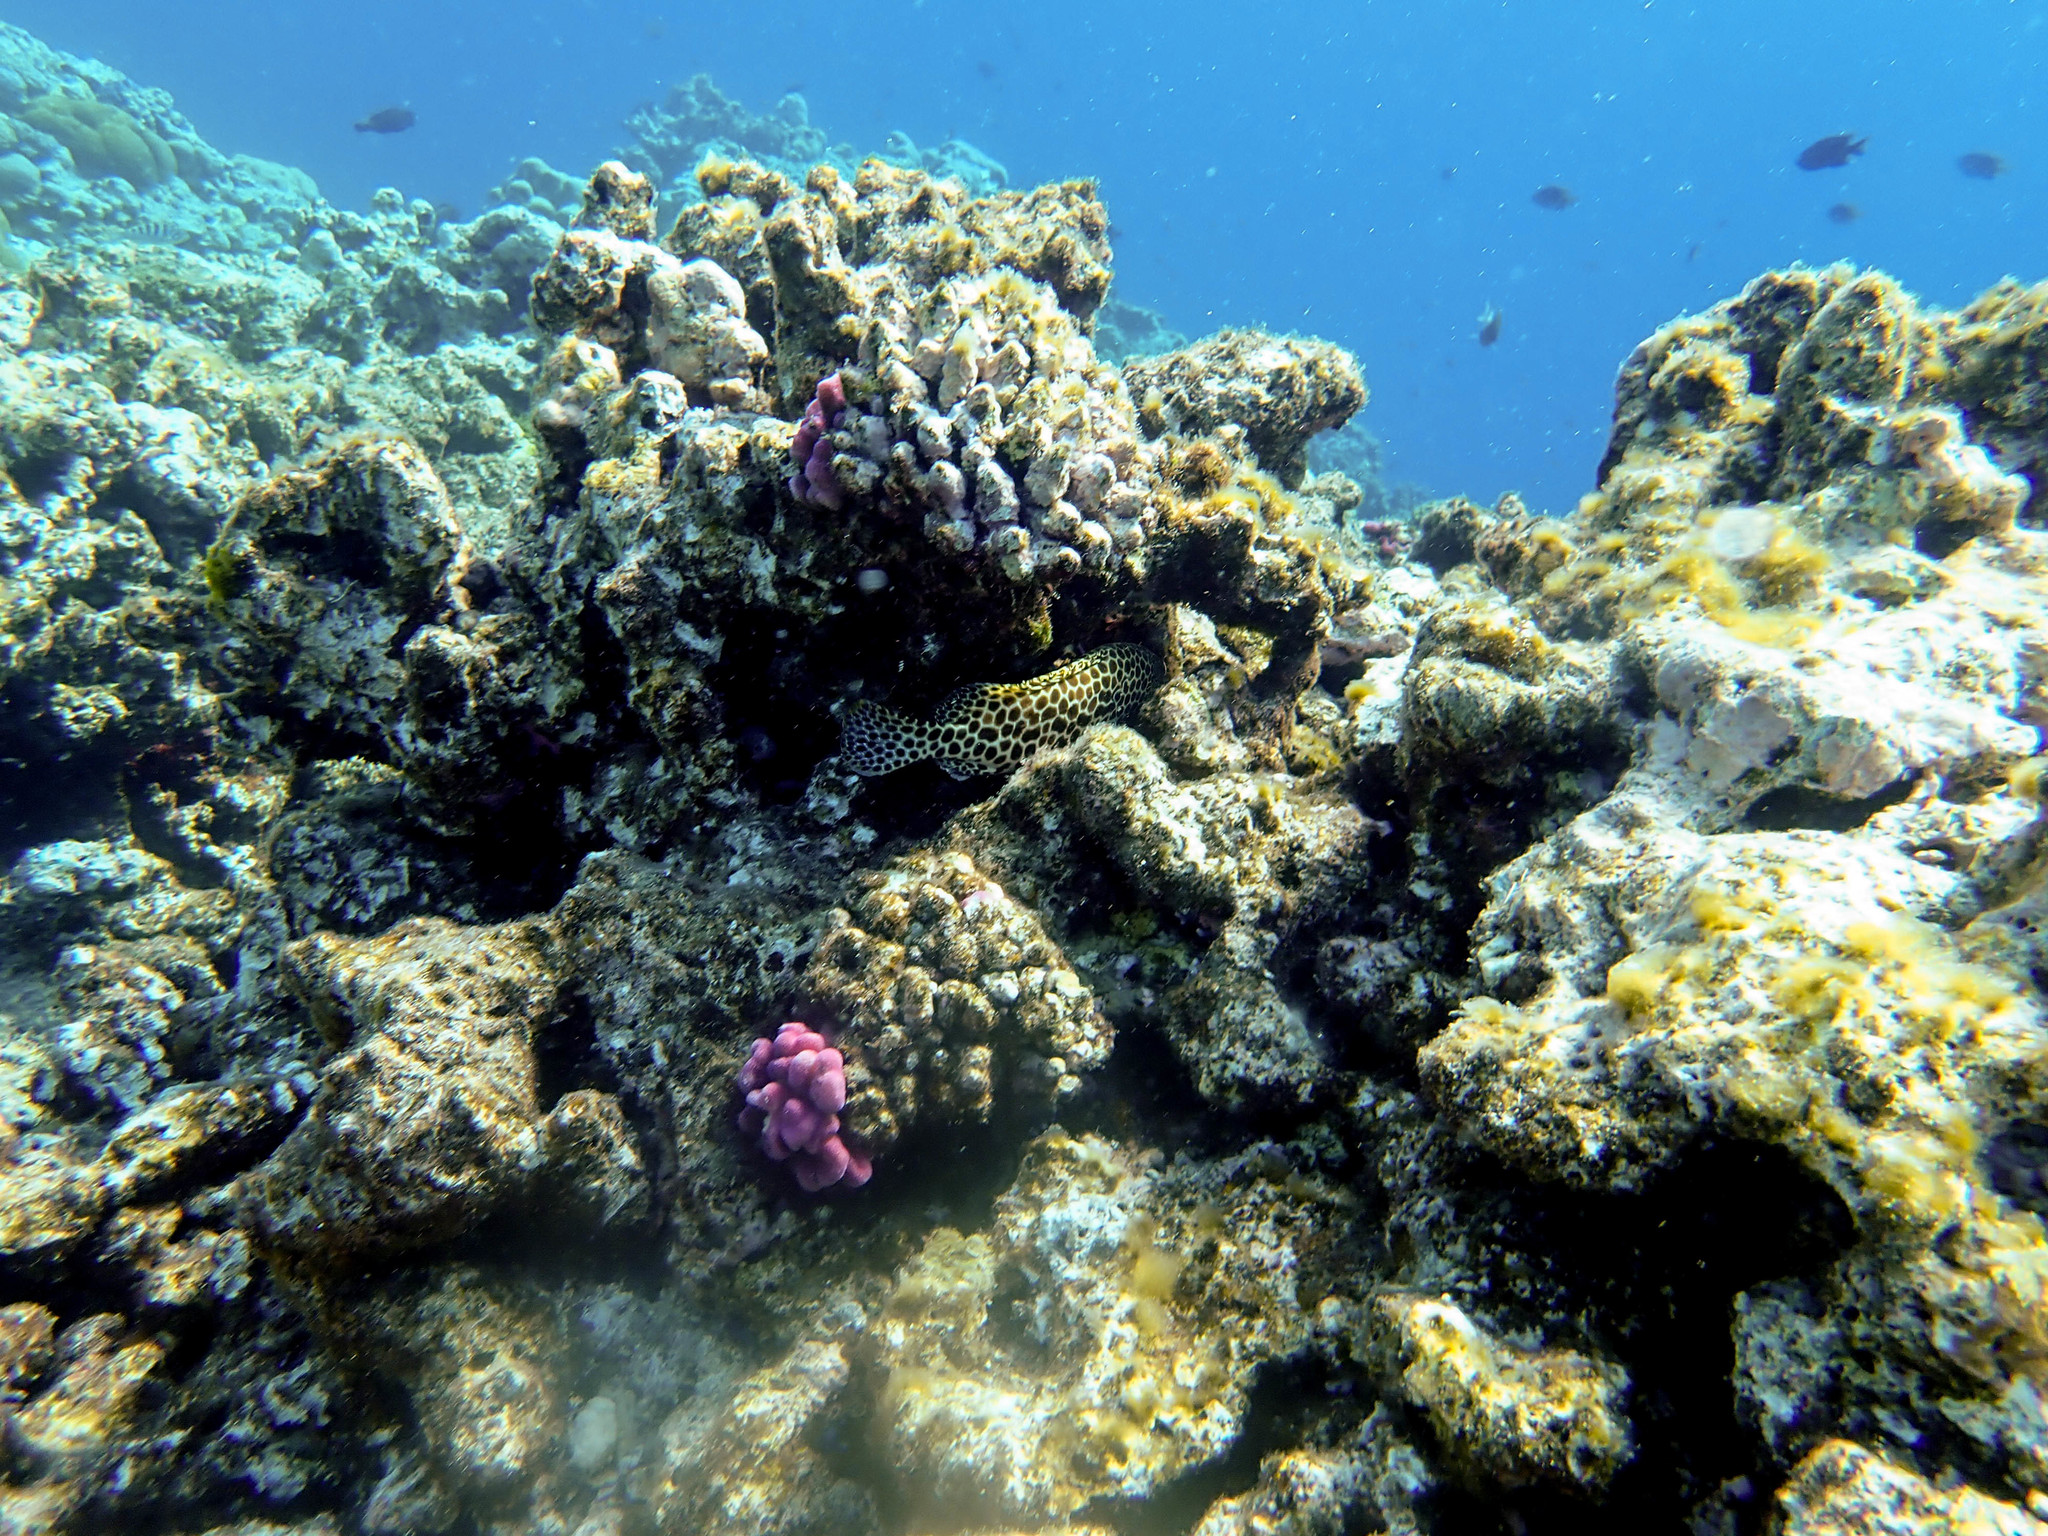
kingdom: Animalia
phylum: Chordata
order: Perciformes
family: Serranidae
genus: Epinephelus
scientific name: Epinephelus merra
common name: Honeycomb grouper
